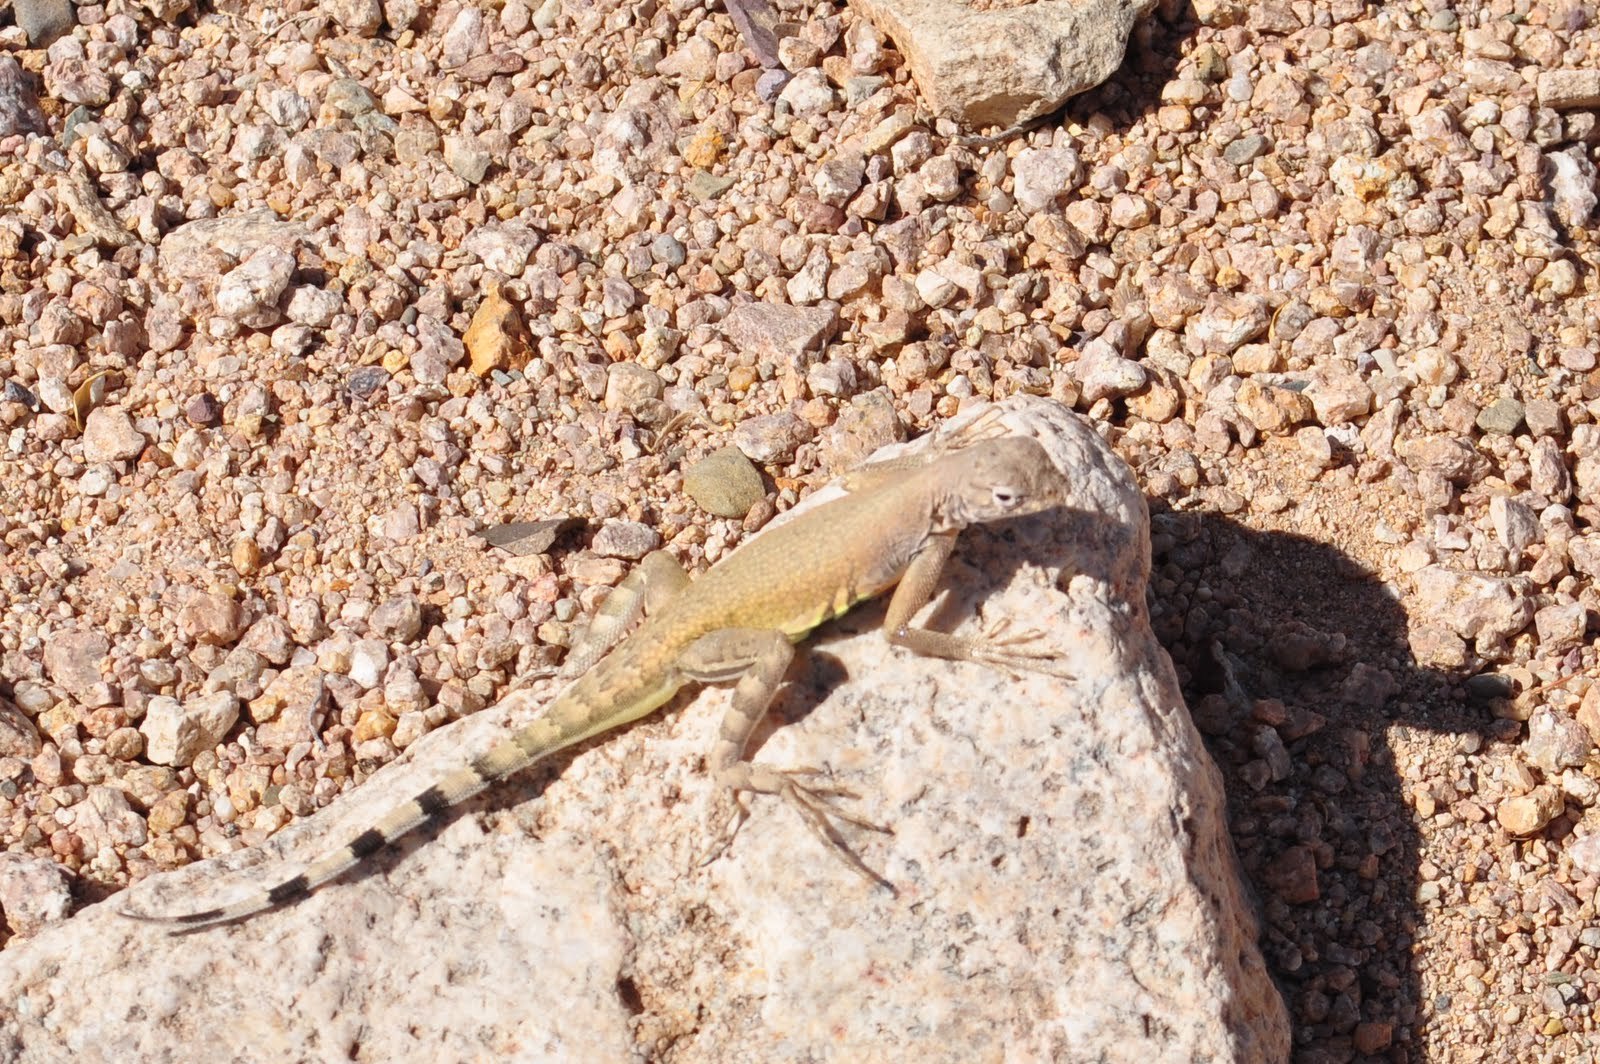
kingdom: Animalia
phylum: Chordata
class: Squamata
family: Phrynosomatidae
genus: Callisaurus
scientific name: Callisaurus draconoides
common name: Zebra-tailed lizard
